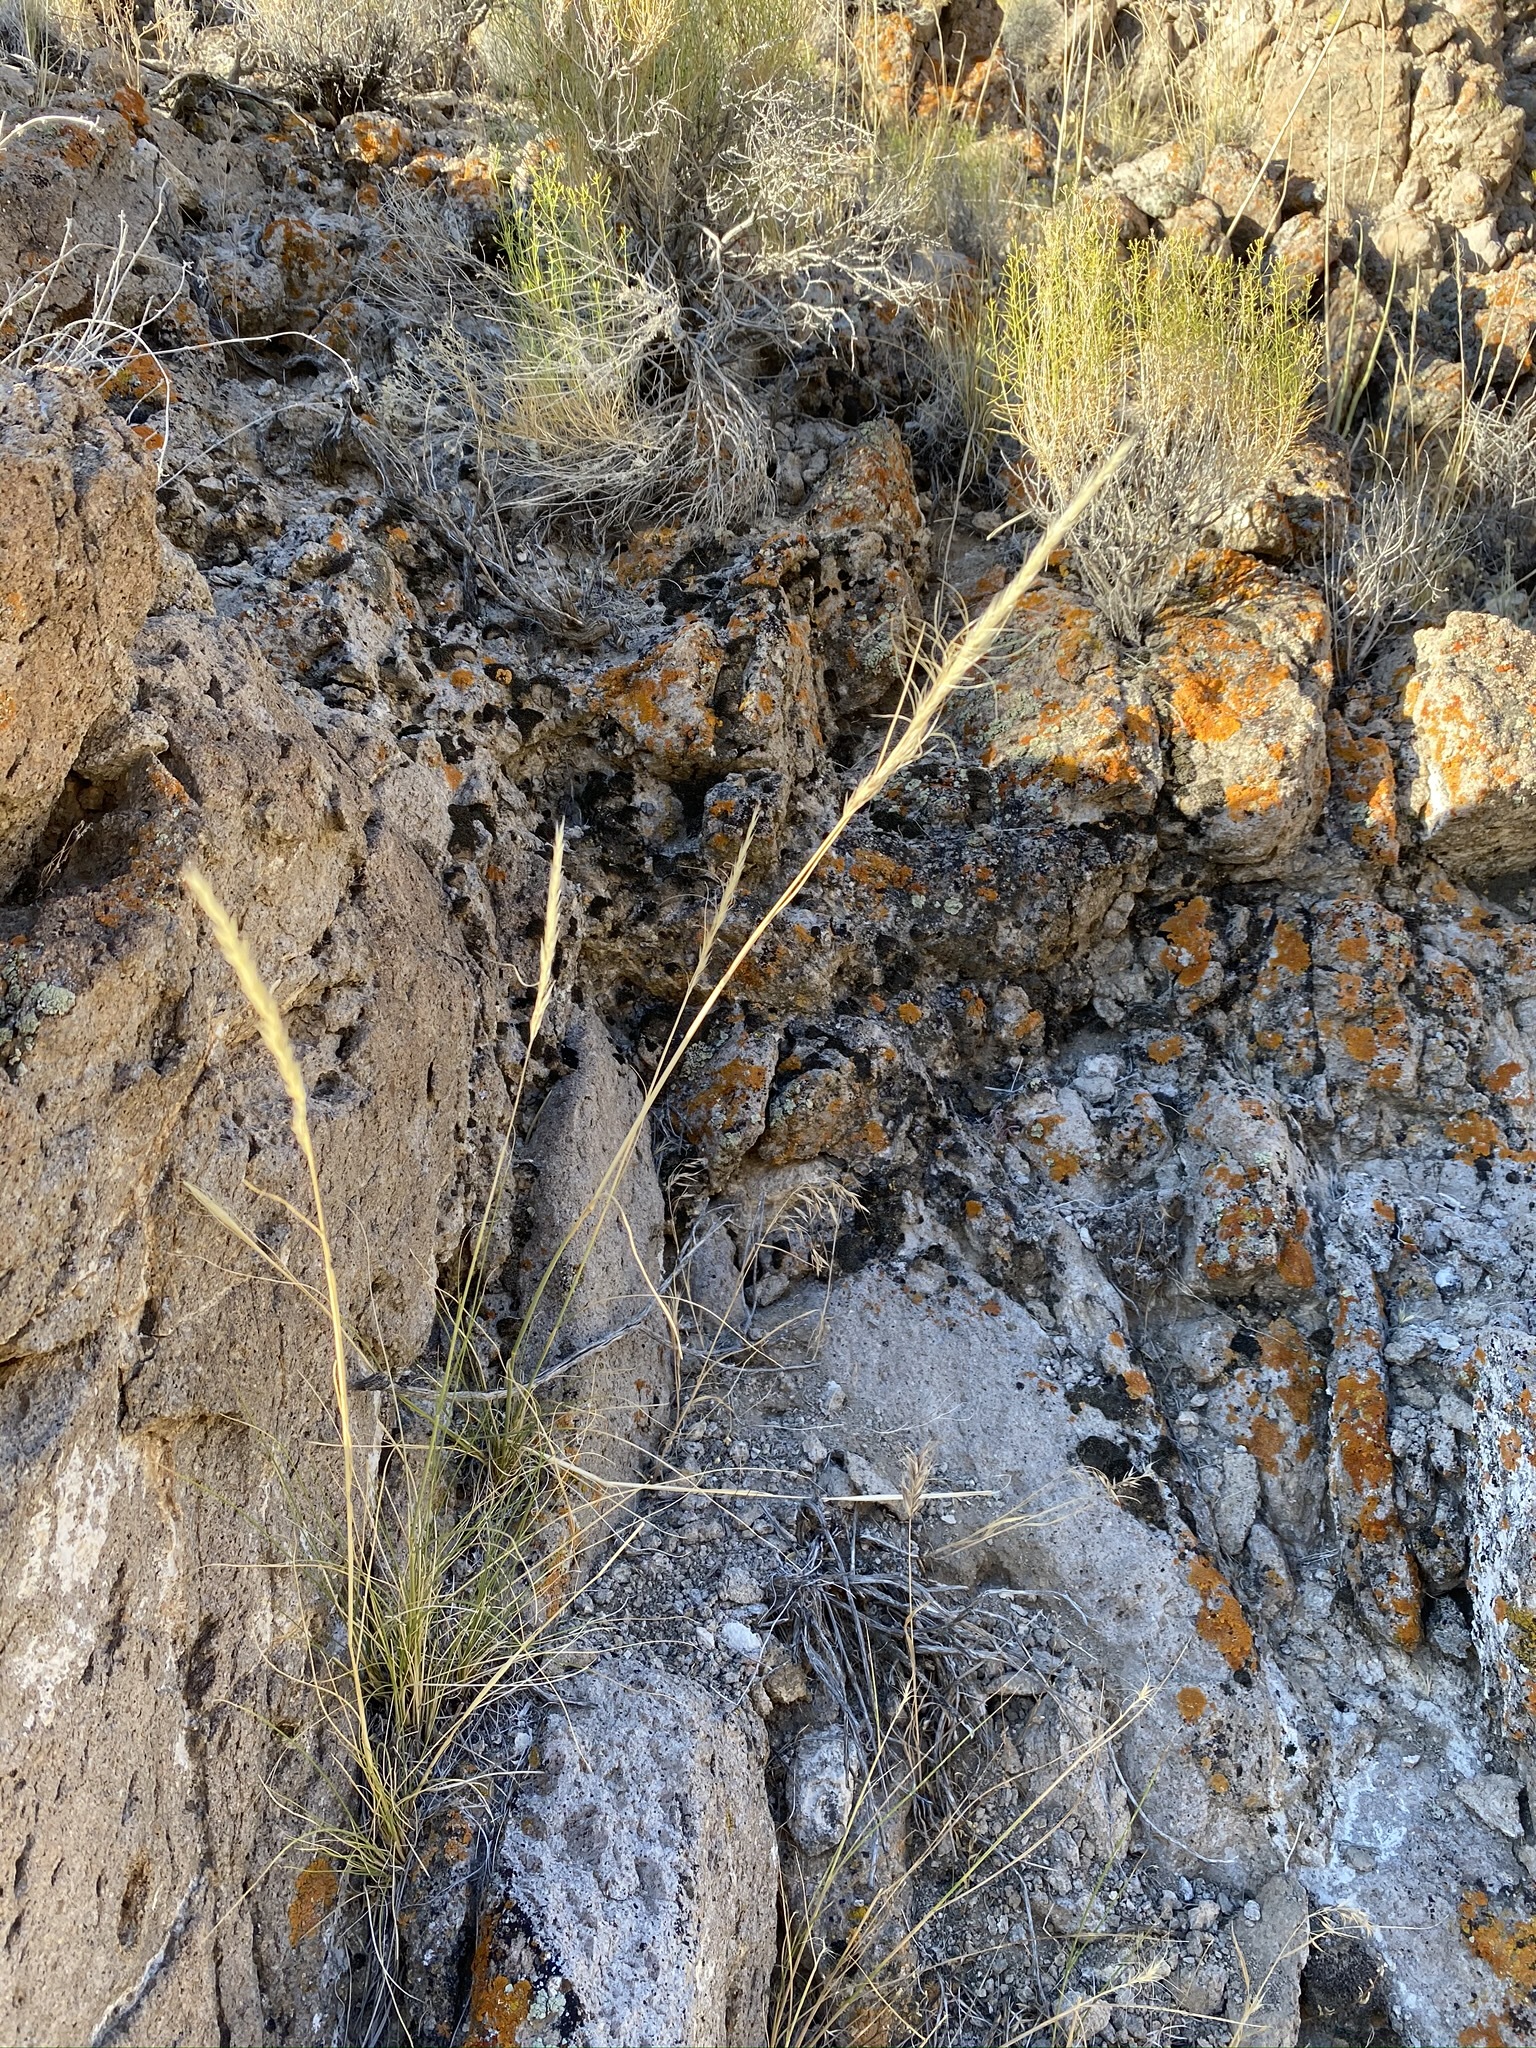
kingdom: Plantae
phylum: Tracheophyta
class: Liliopsida
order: Poales
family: Poaceae
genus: Eriocoma
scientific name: Eriocoma arida
